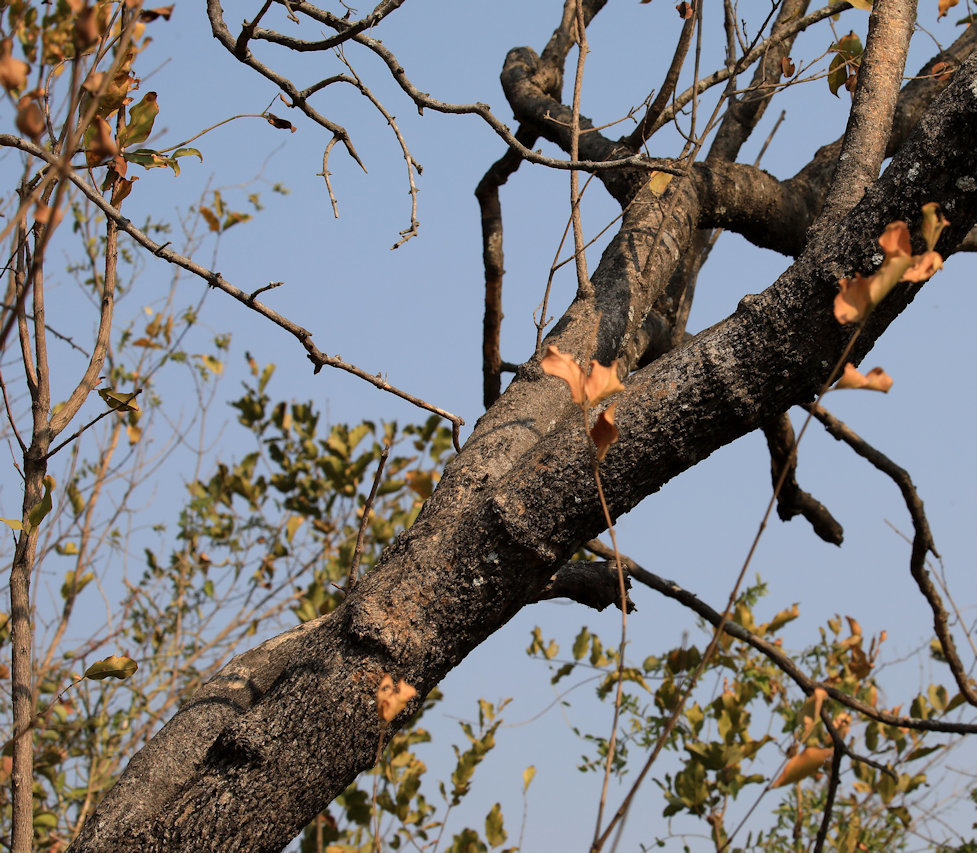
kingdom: Plantae
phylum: Tracheophyta
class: Magnoliopsida
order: Myrtales
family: Combretaceae
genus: Combretum
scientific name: Combretum apiculatum
